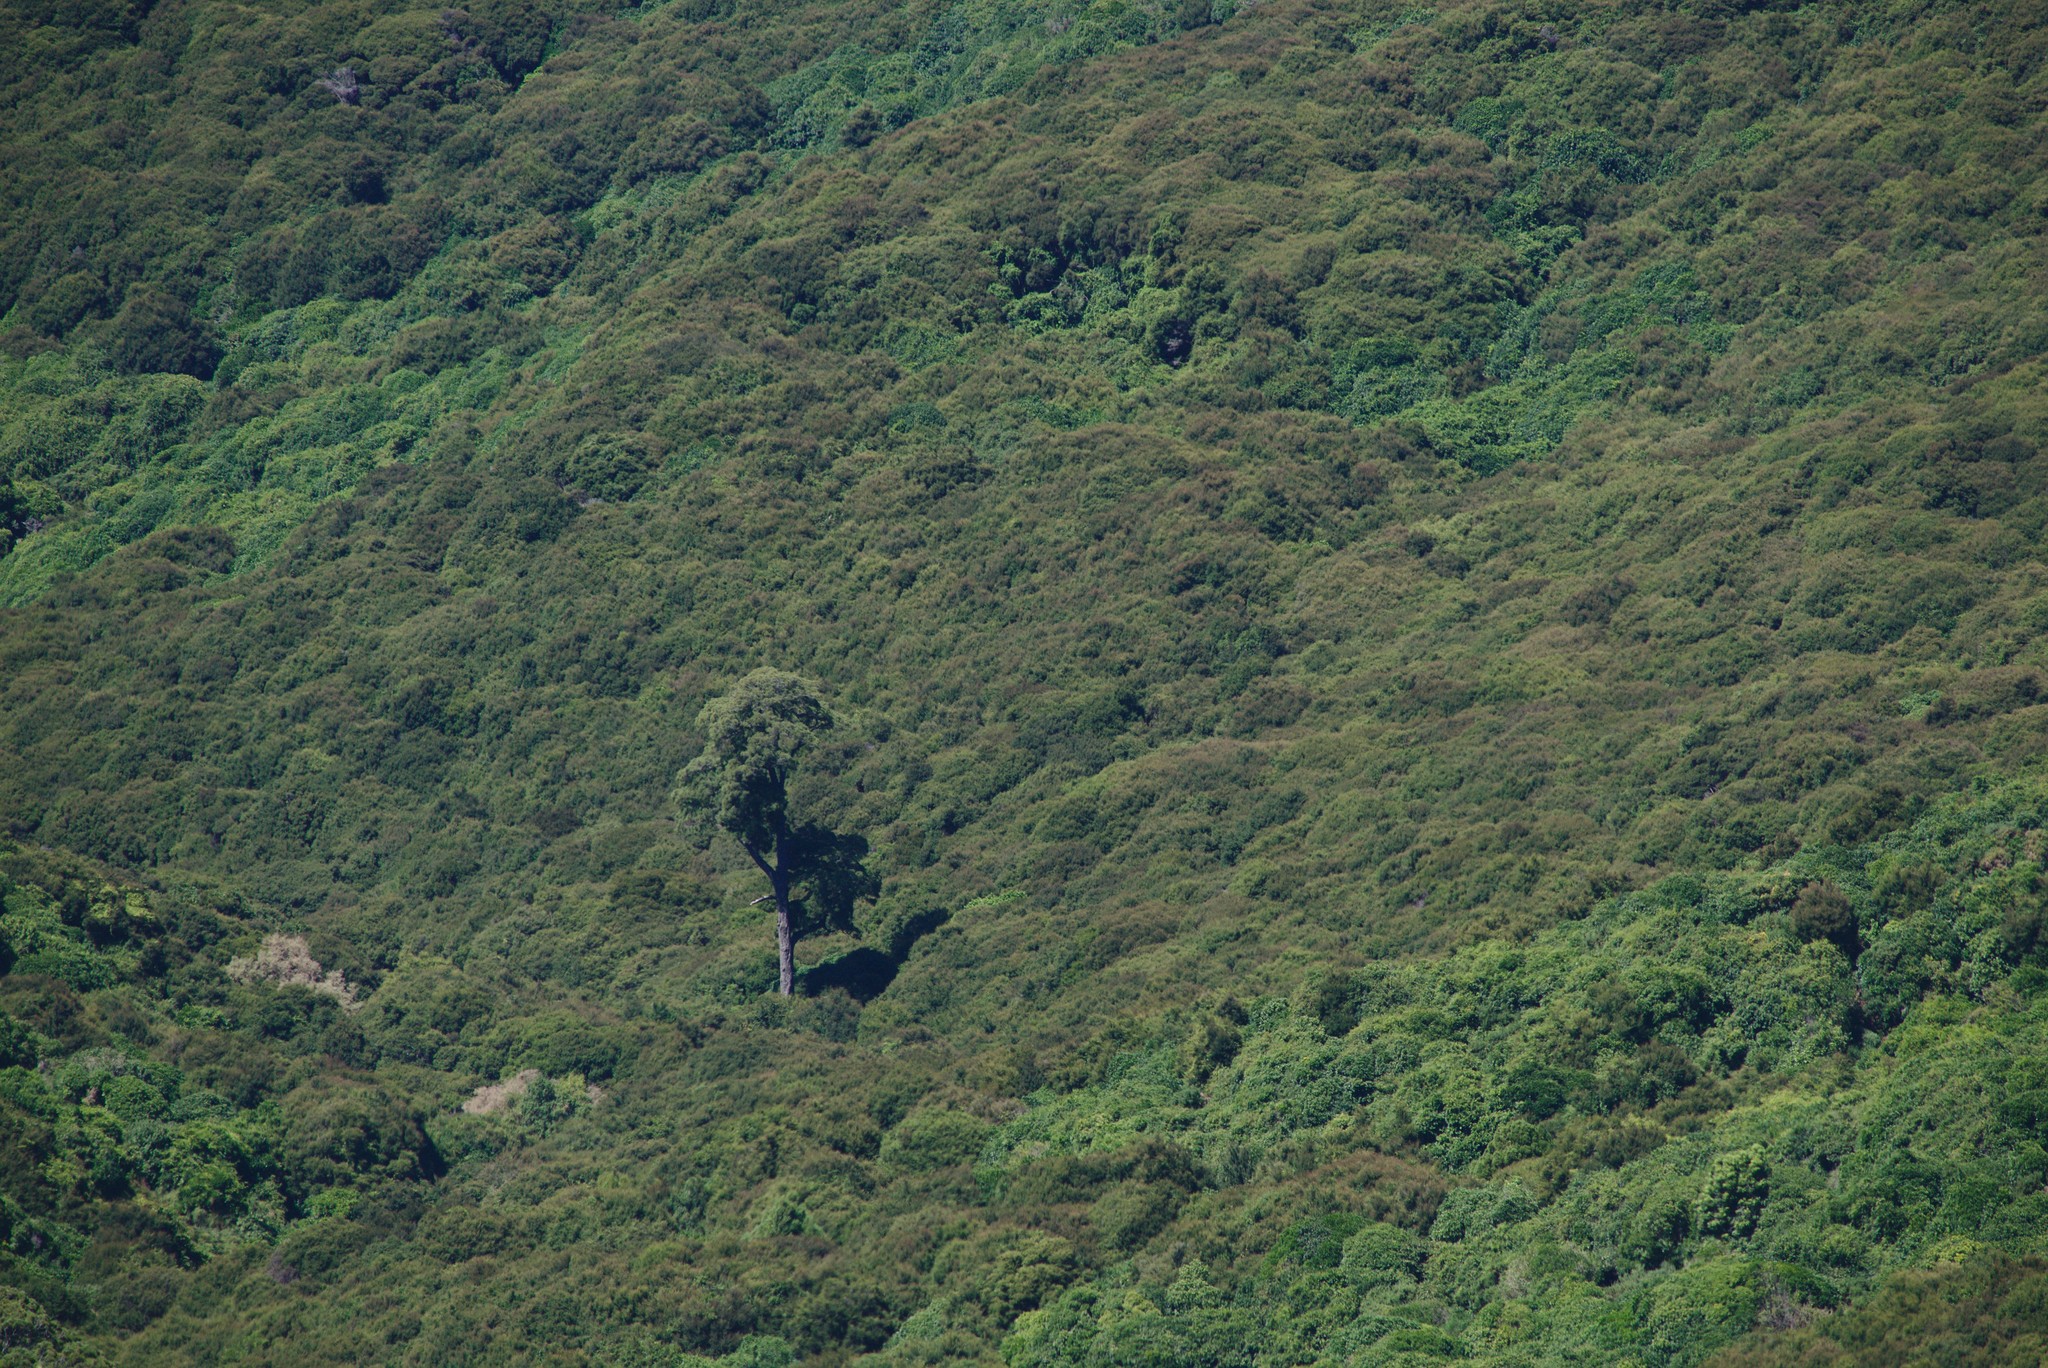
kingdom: Plantae
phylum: Tracheophyta
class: Pinopsida
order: Pinales
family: Podocarpaceae
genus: Dacrycarpus
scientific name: Dacrycarpus dacrydioides
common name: White pine
